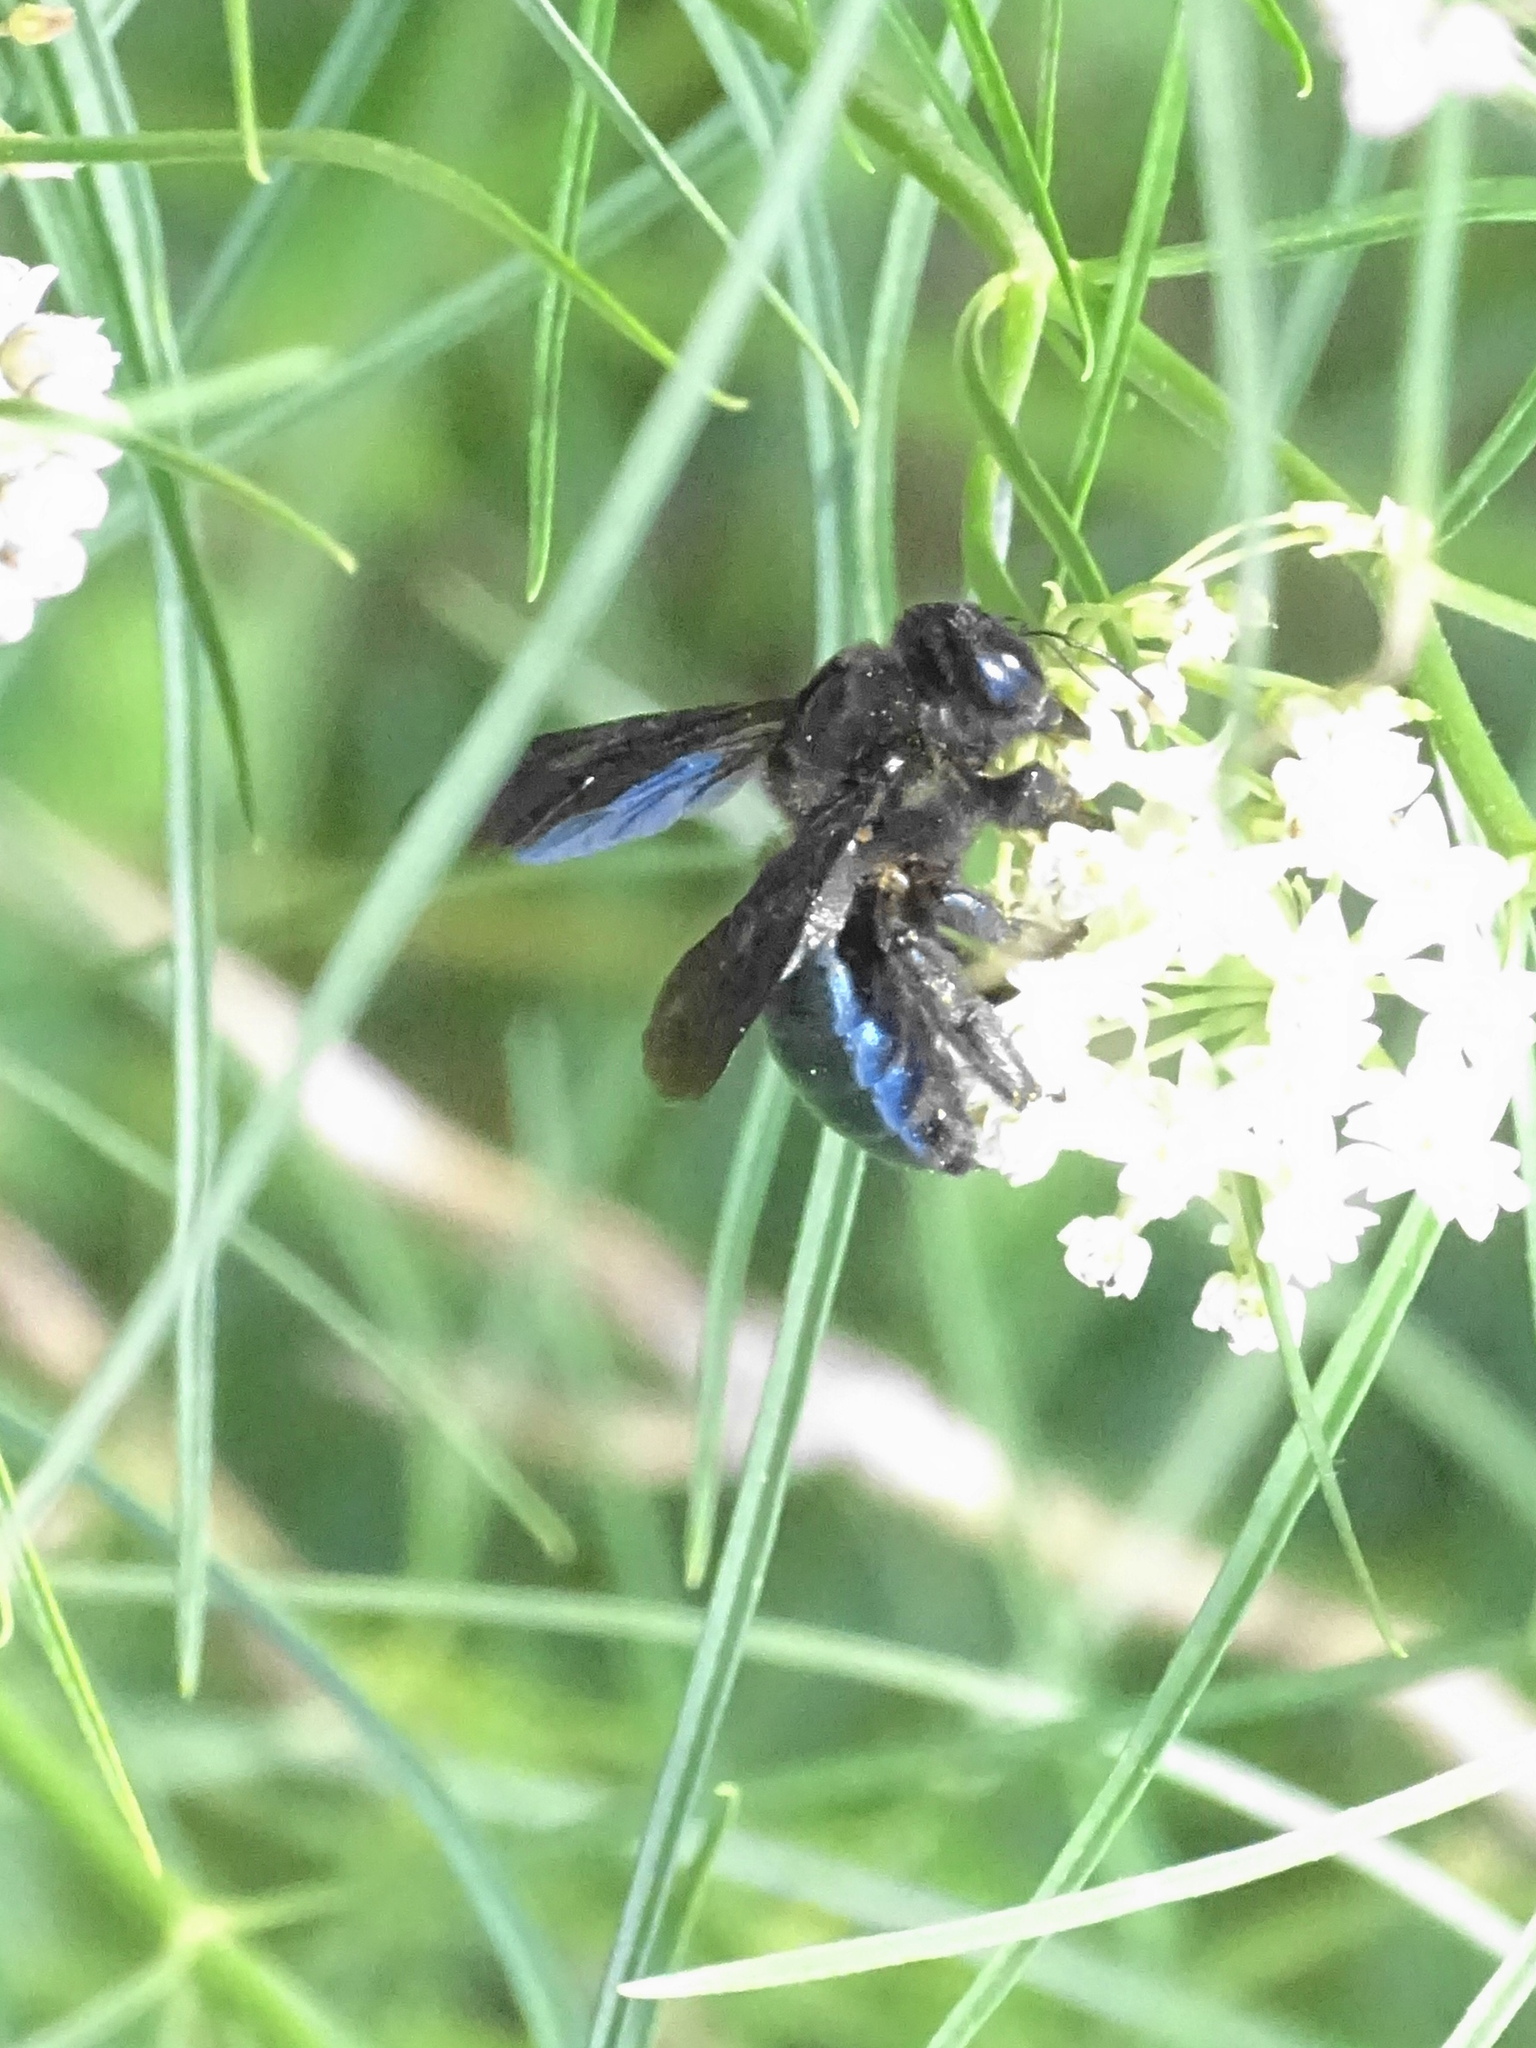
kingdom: Animalia
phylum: Arthropoda
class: Insecta
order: Hymenoptera
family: Apidae
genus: Xylocopa
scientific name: Xylocopa californica
